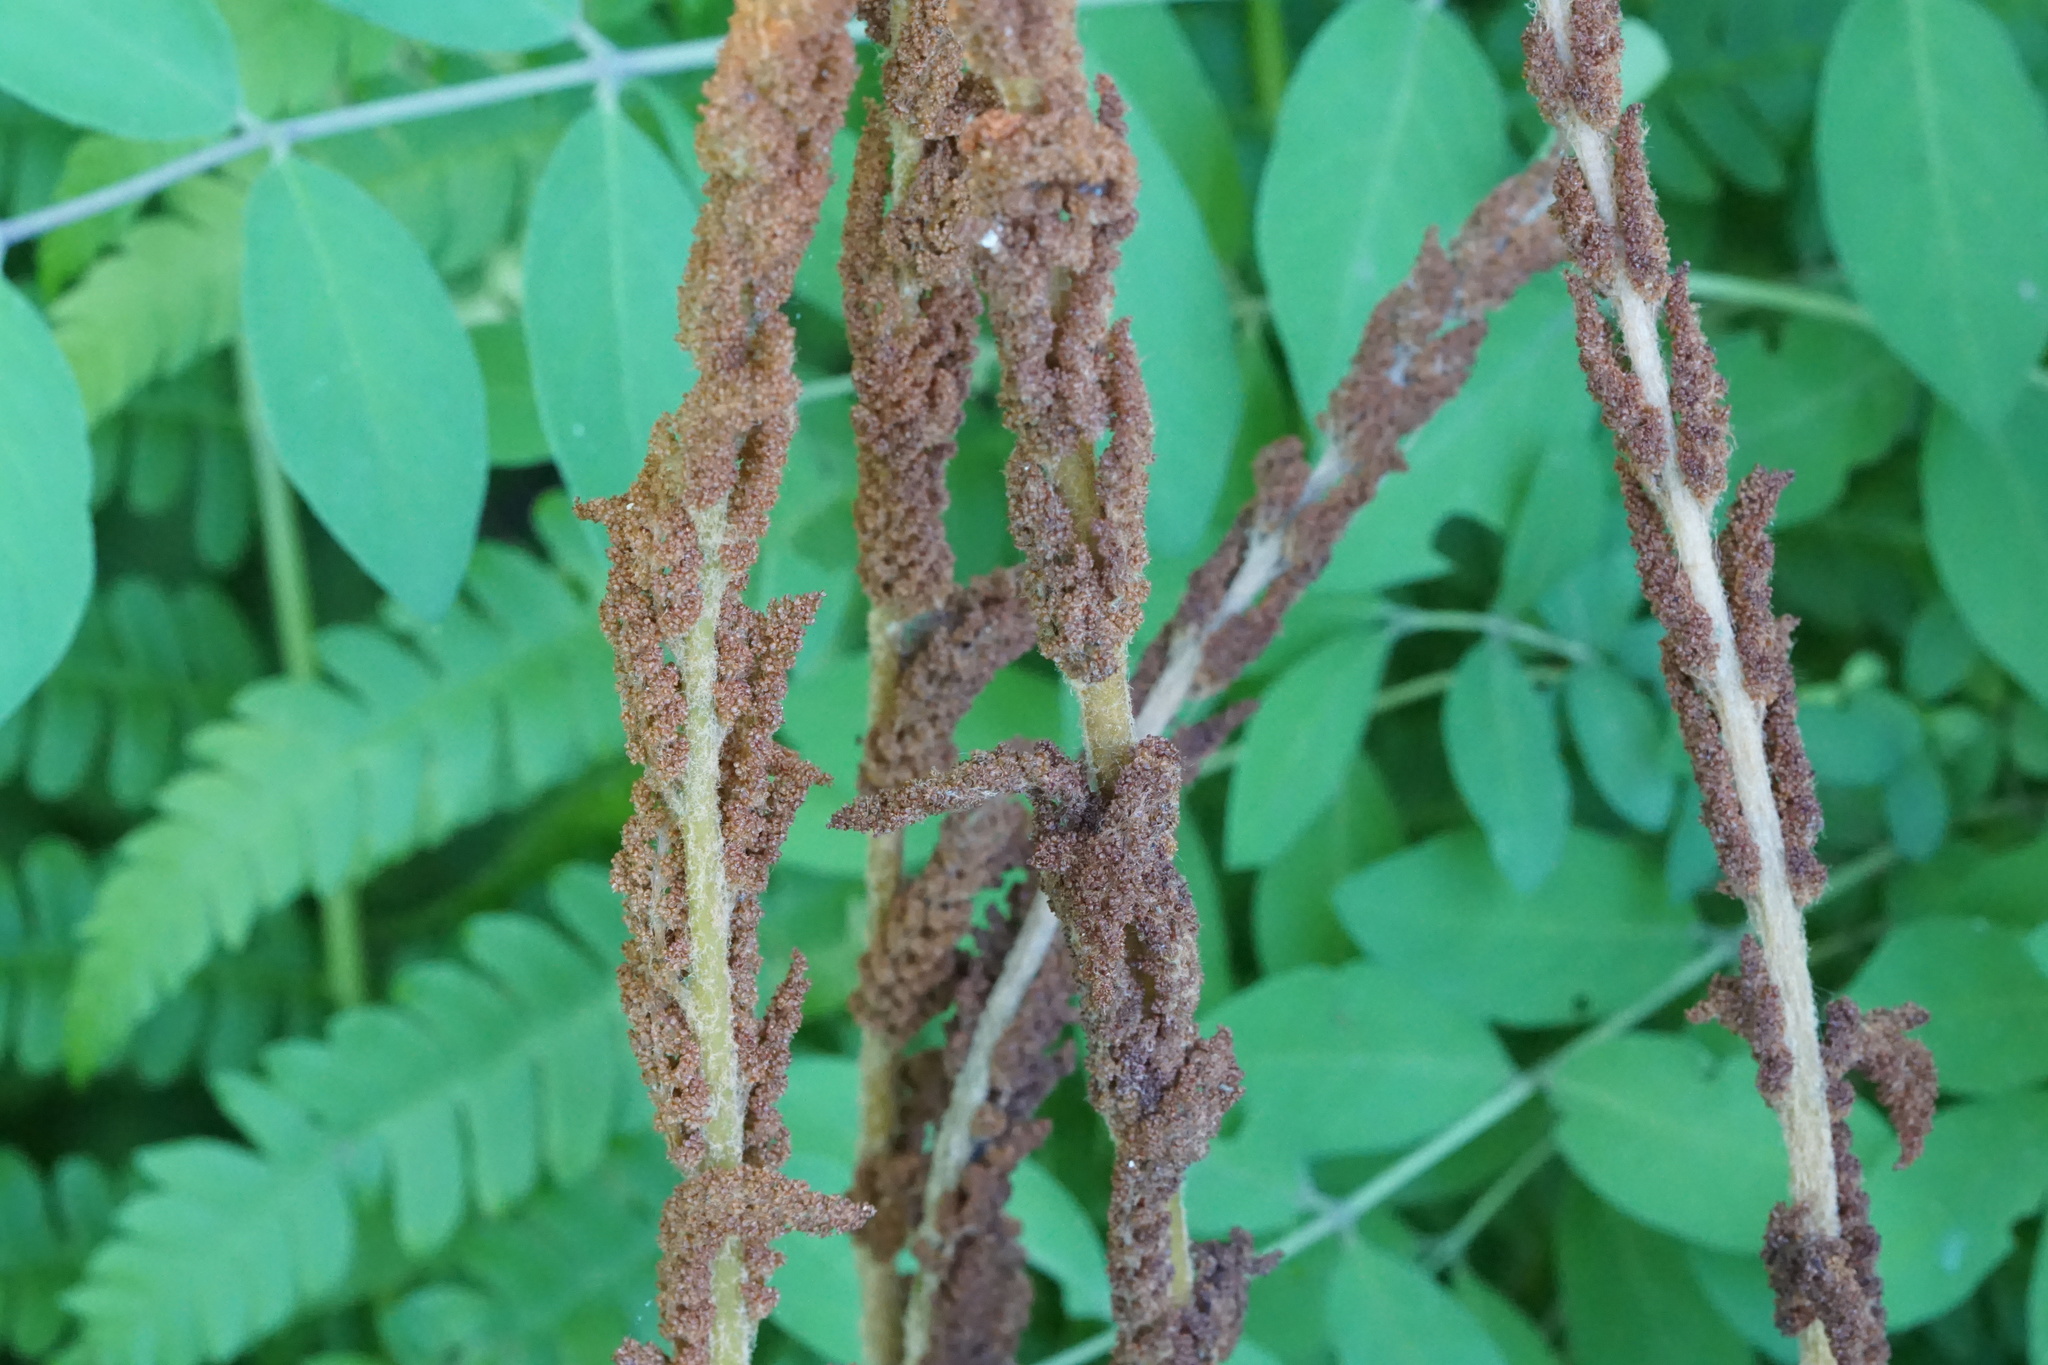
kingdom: Plantae
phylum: Tracheophyta
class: Polypodiopsida
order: Osmundales
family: Osmundaceae
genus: Osmundastrum
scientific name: Osmundastrum cinnamomeum
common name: Cinnamon fern
